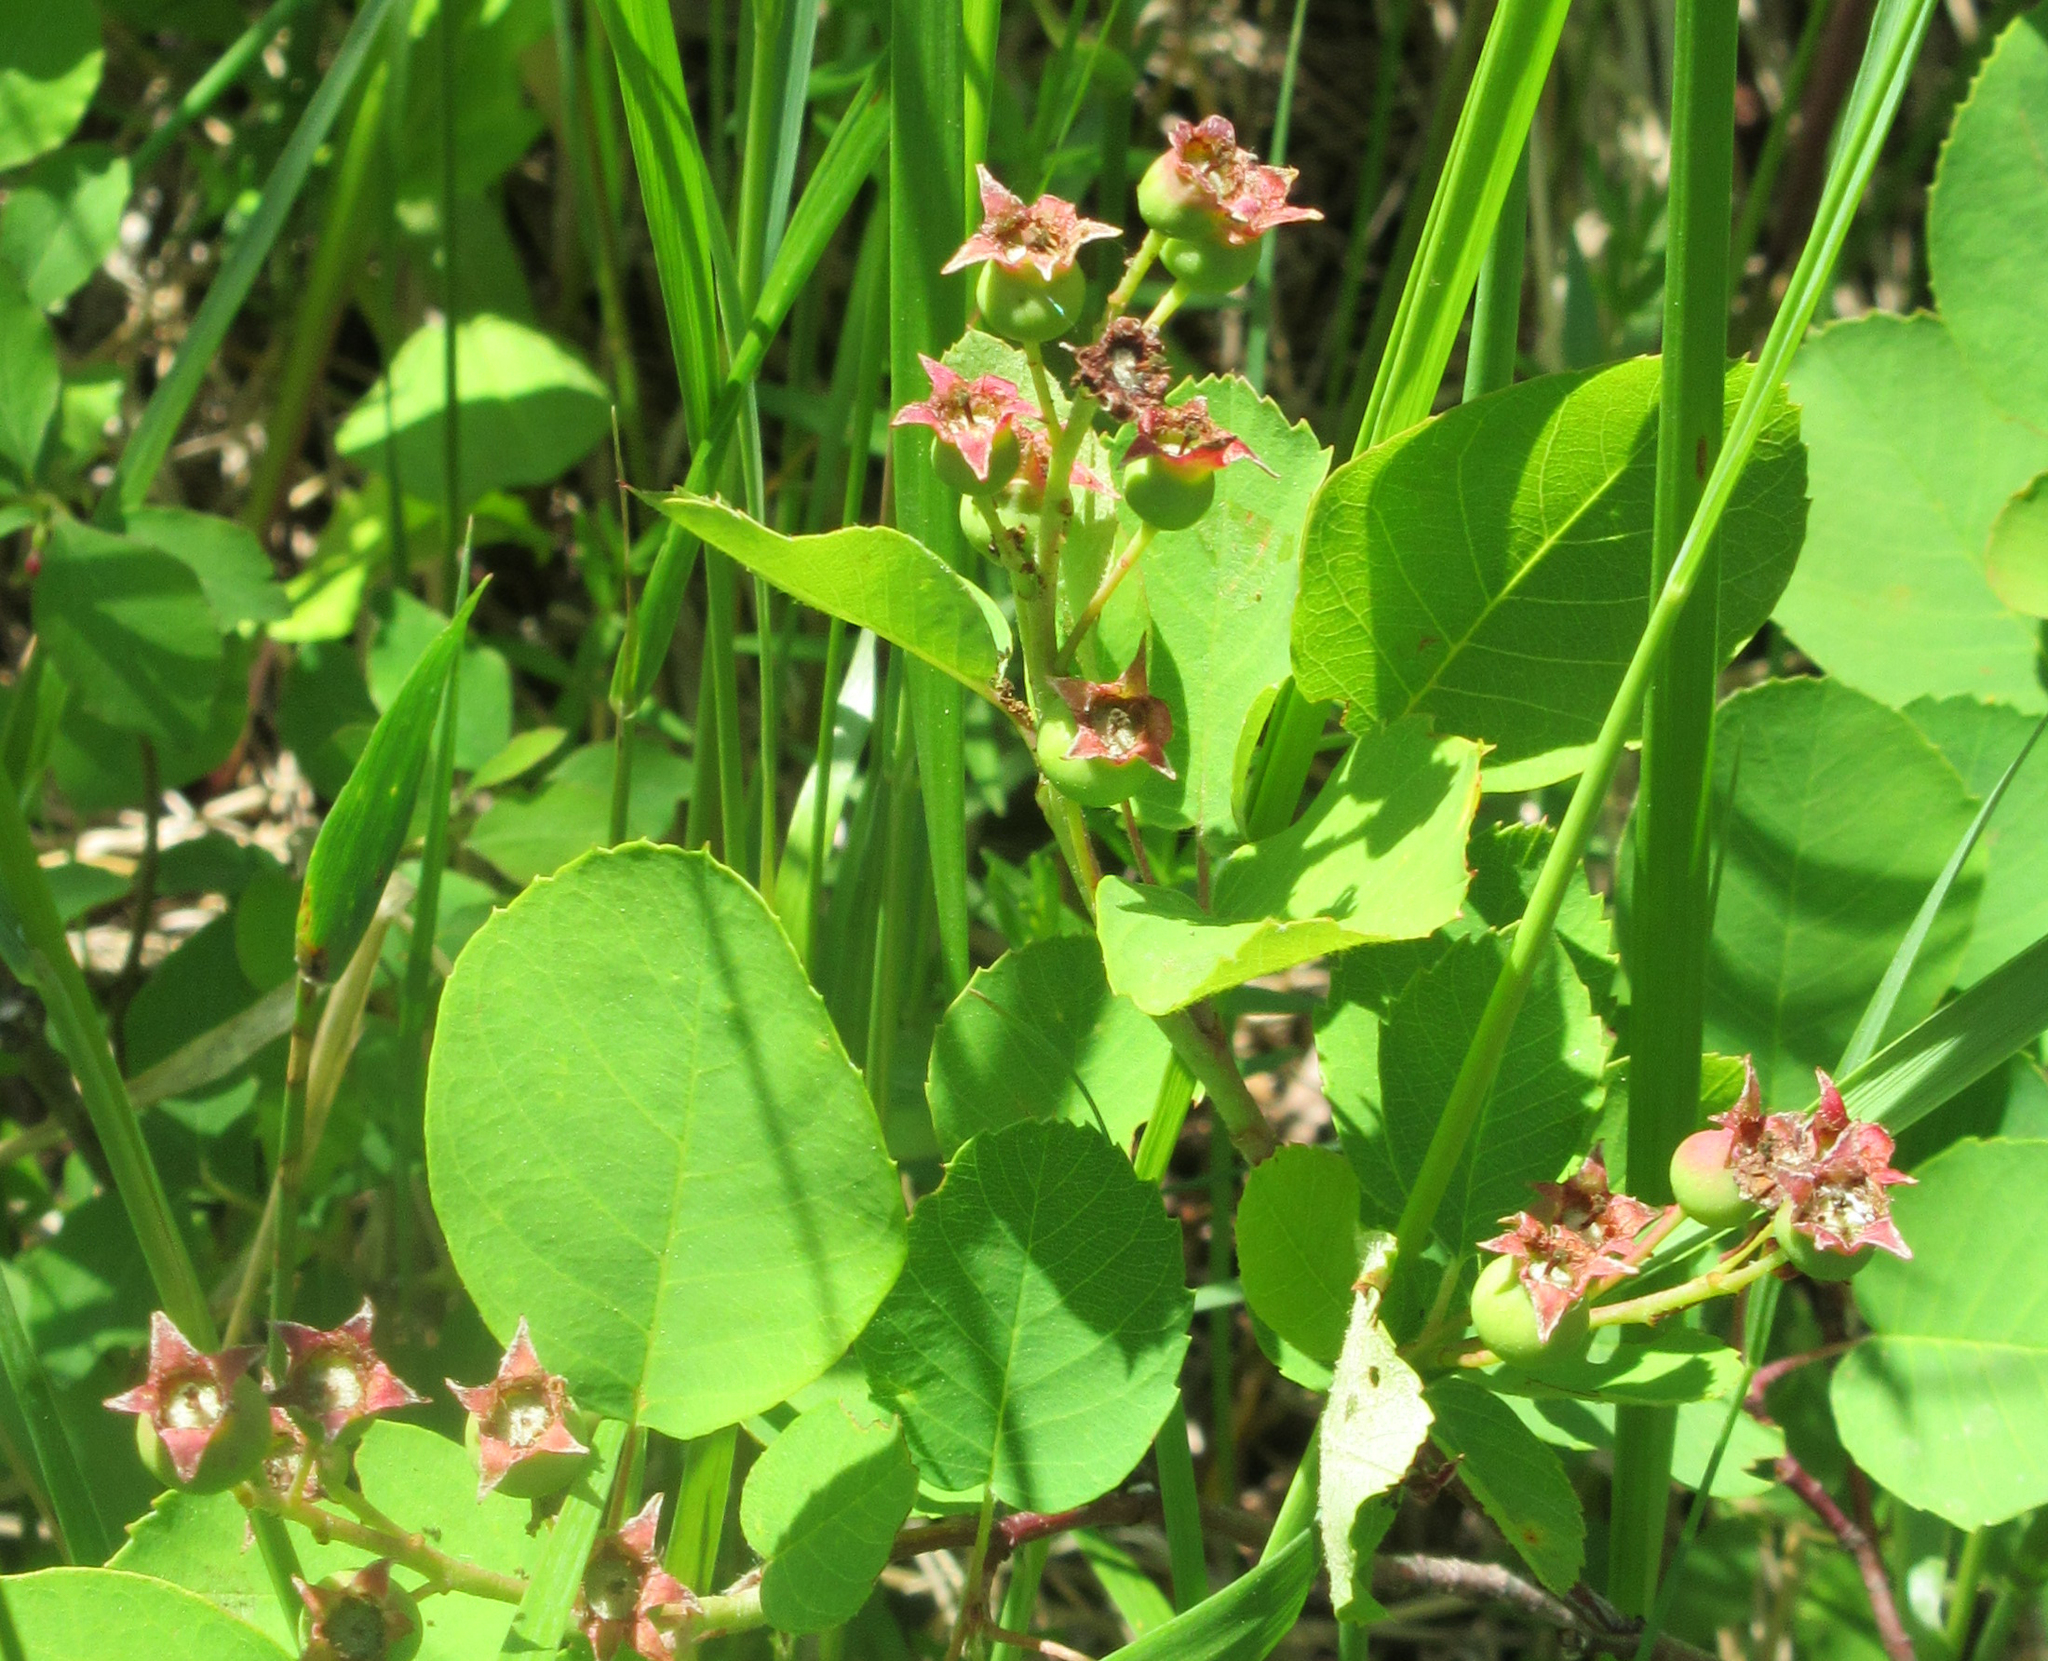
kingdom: Plantae
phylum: Tracheophyta
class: Magnoliopsida
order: Rosales
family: Rosaceae
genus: Amelanchier
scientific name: Amelanchier alnifolia
